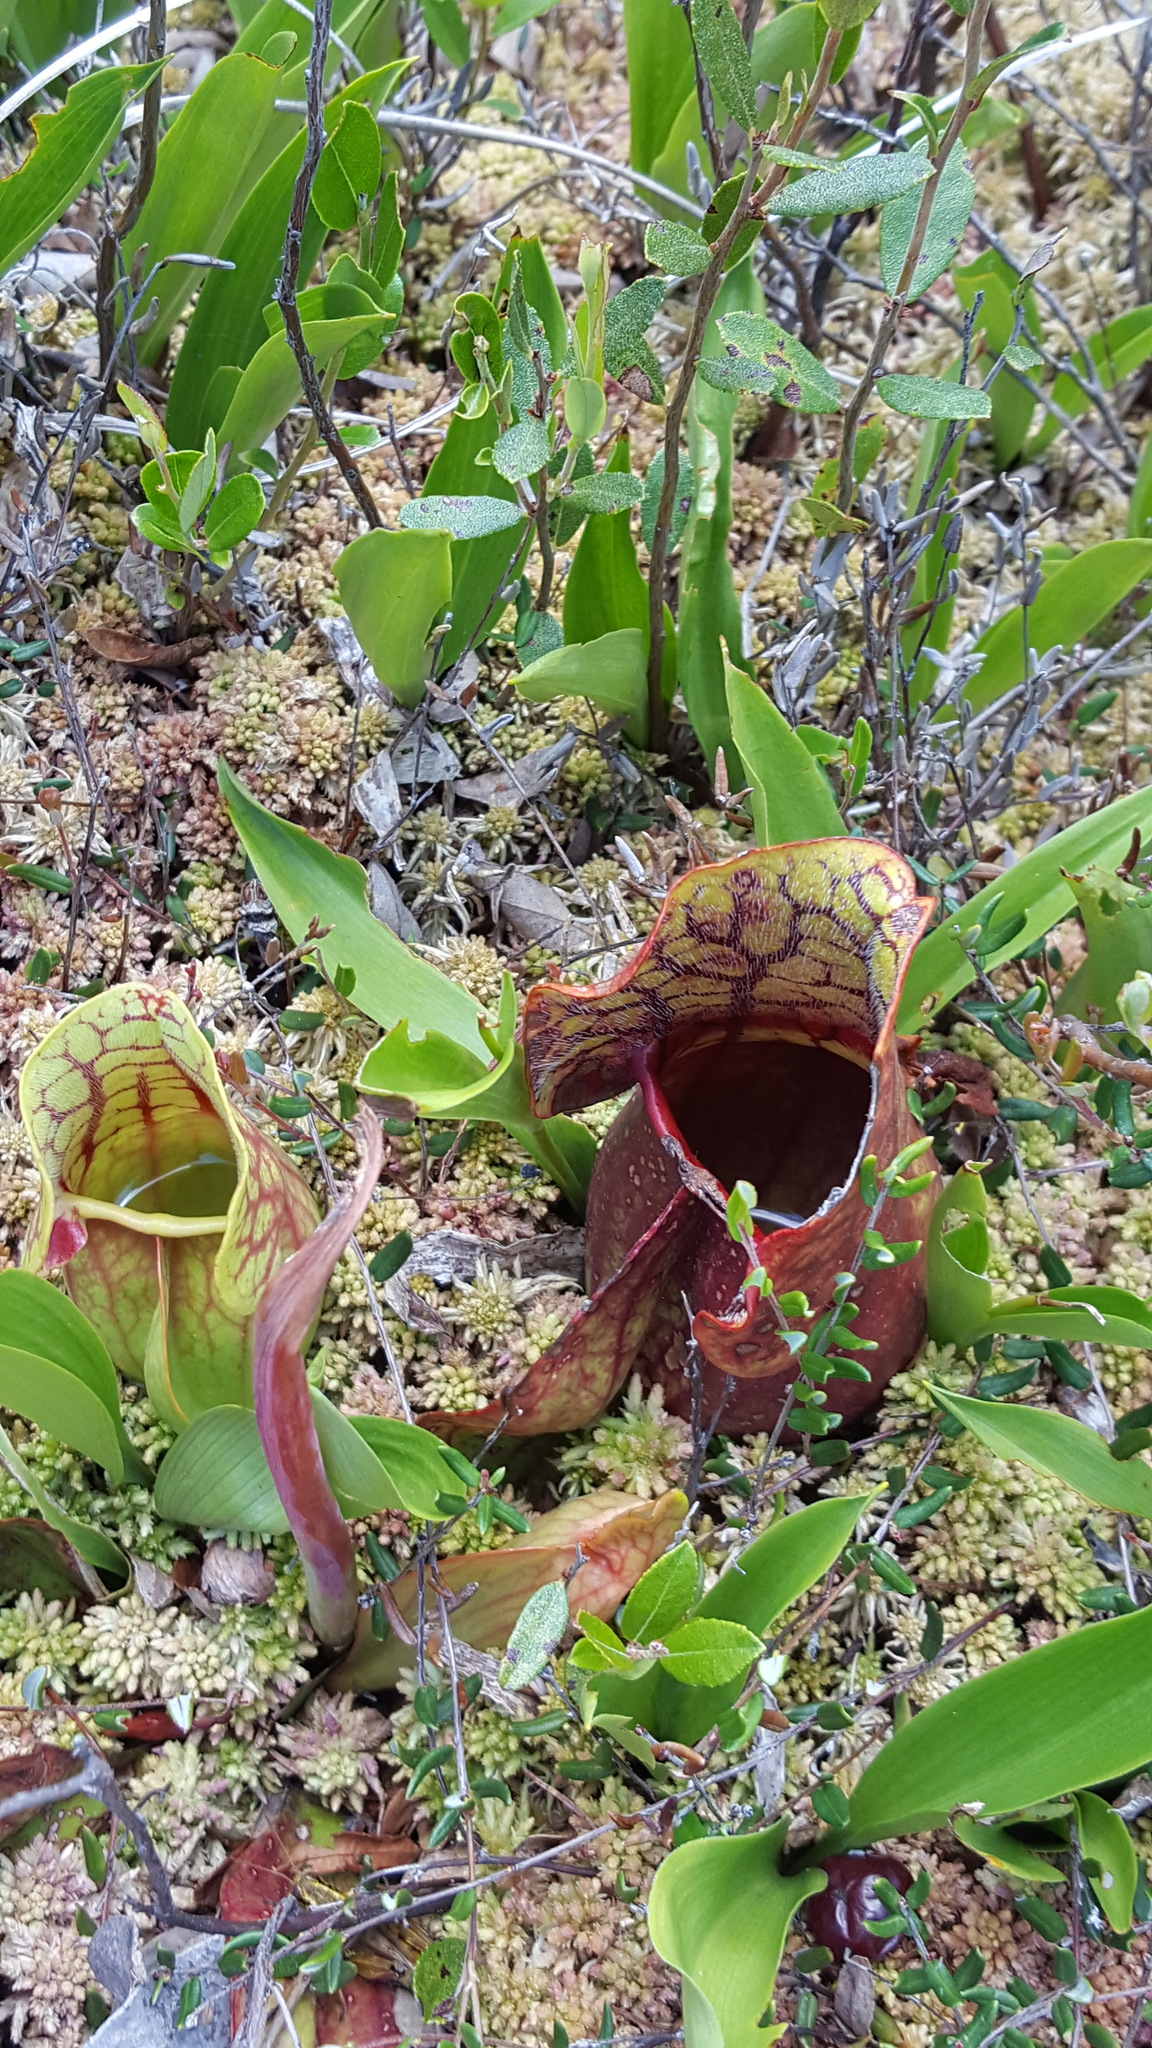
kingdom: Plantae
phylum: Tracheophyta
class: Magnoliopsida
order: Ericales
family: Sarraceniaceae
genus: Sarracenia
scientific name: Sarracenia purpurea
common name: Pitcherplant
